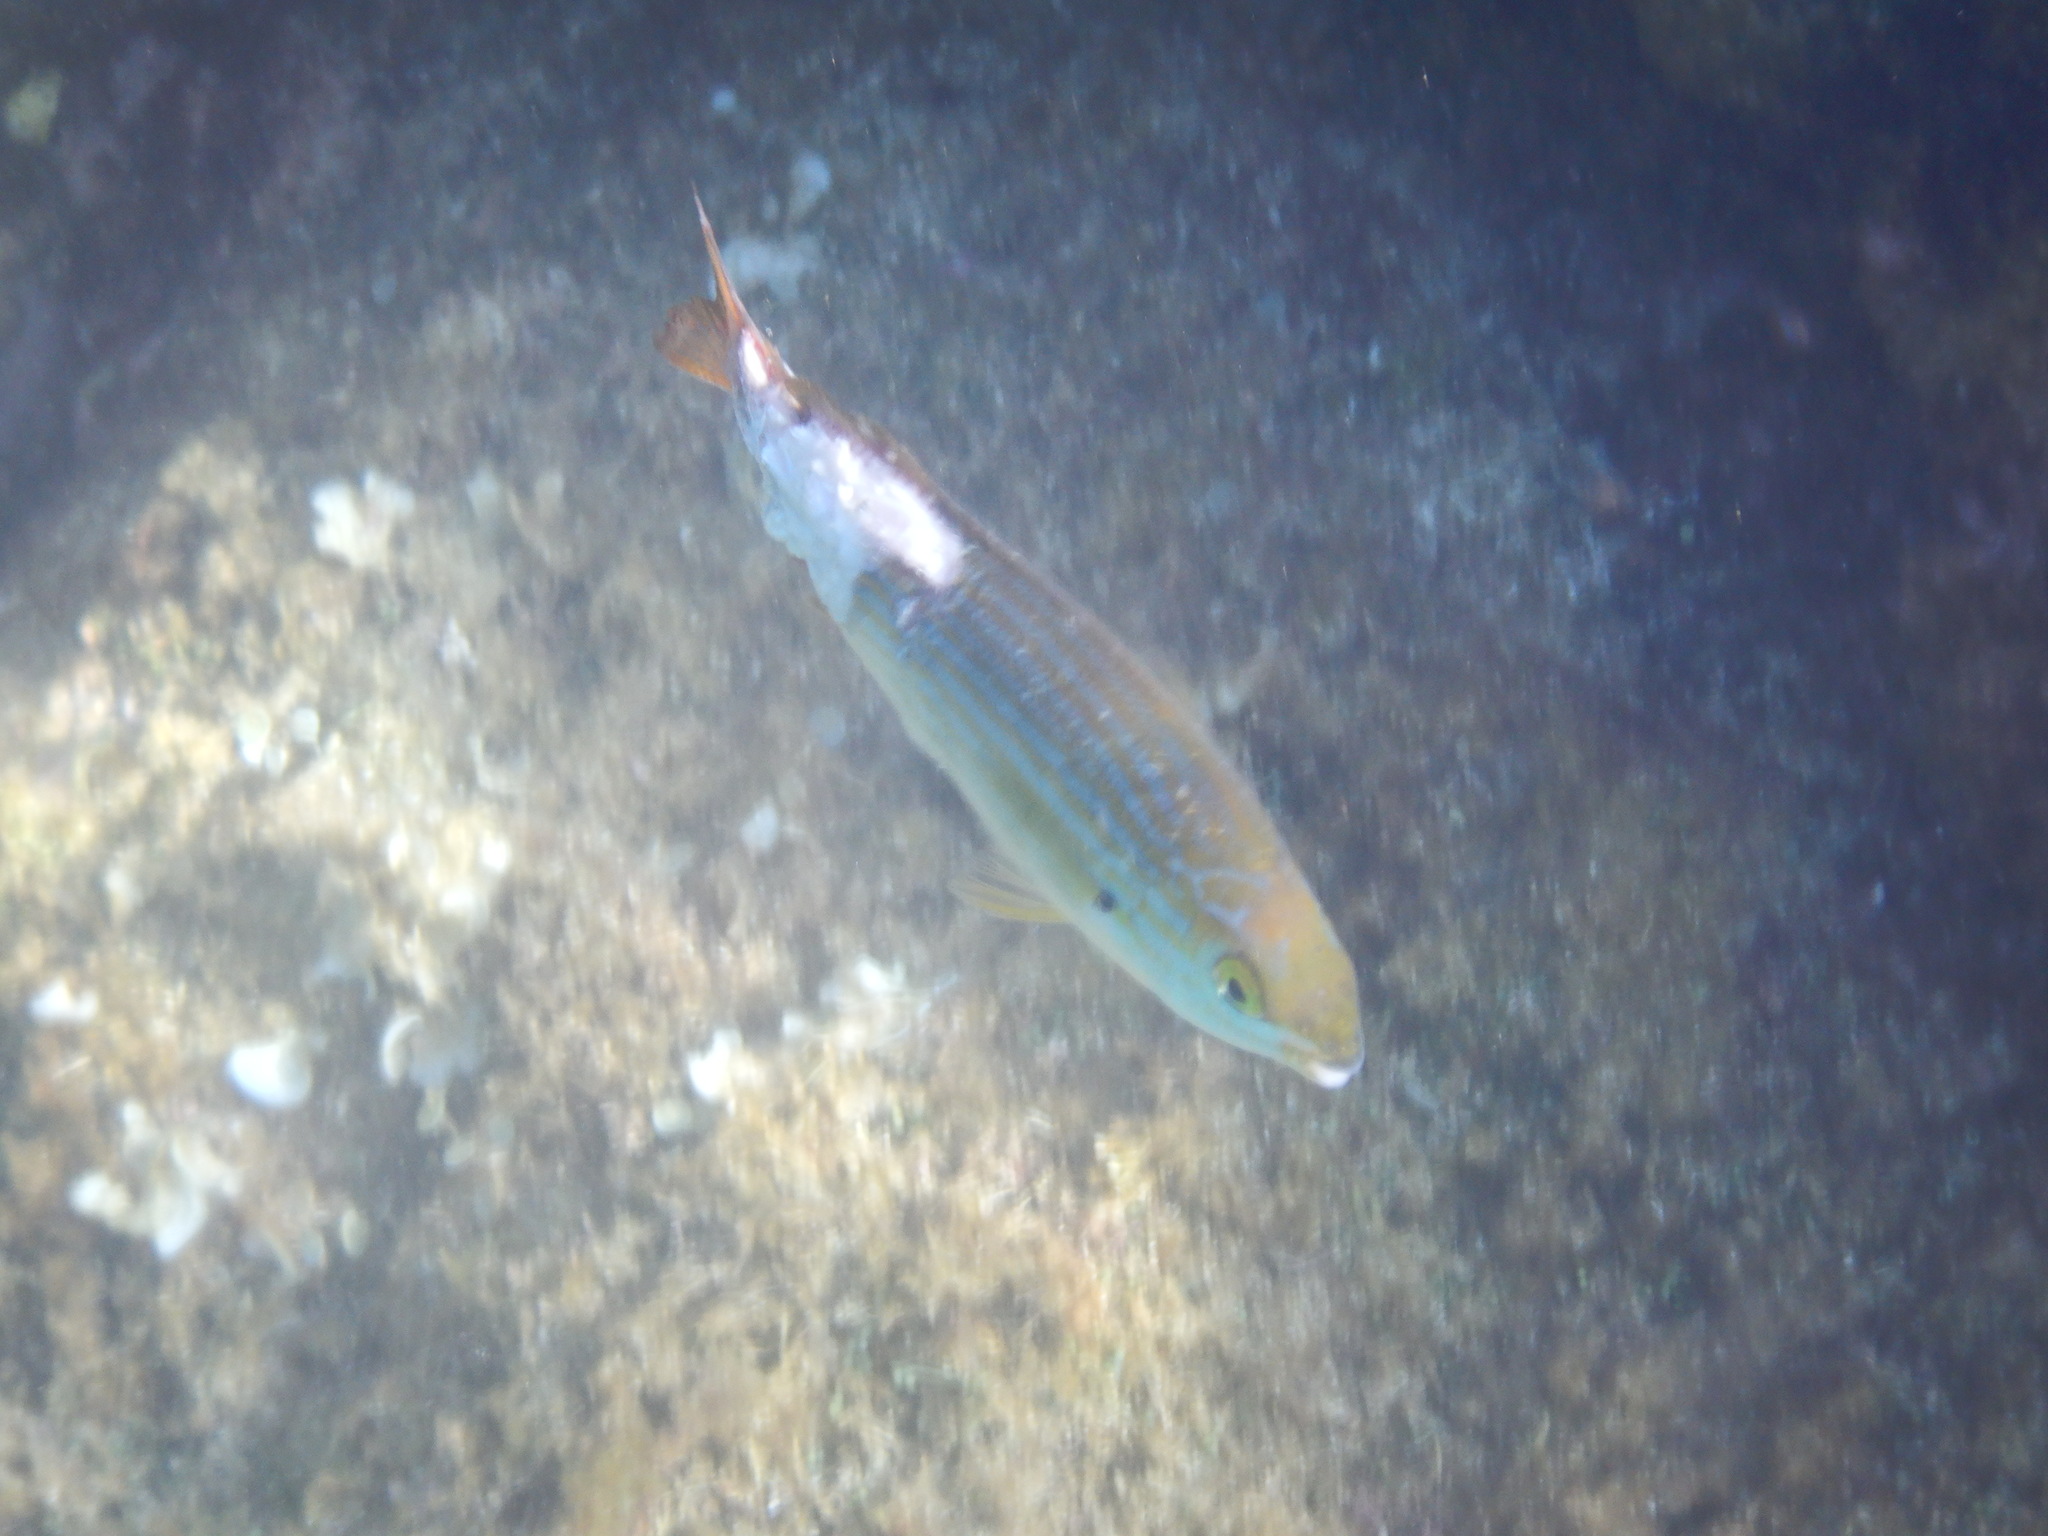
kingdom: Animalia
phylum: Chordata
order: Perciformes
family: Sparidae
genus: Sarpa
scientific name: Sarpa salpa
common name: Salema
